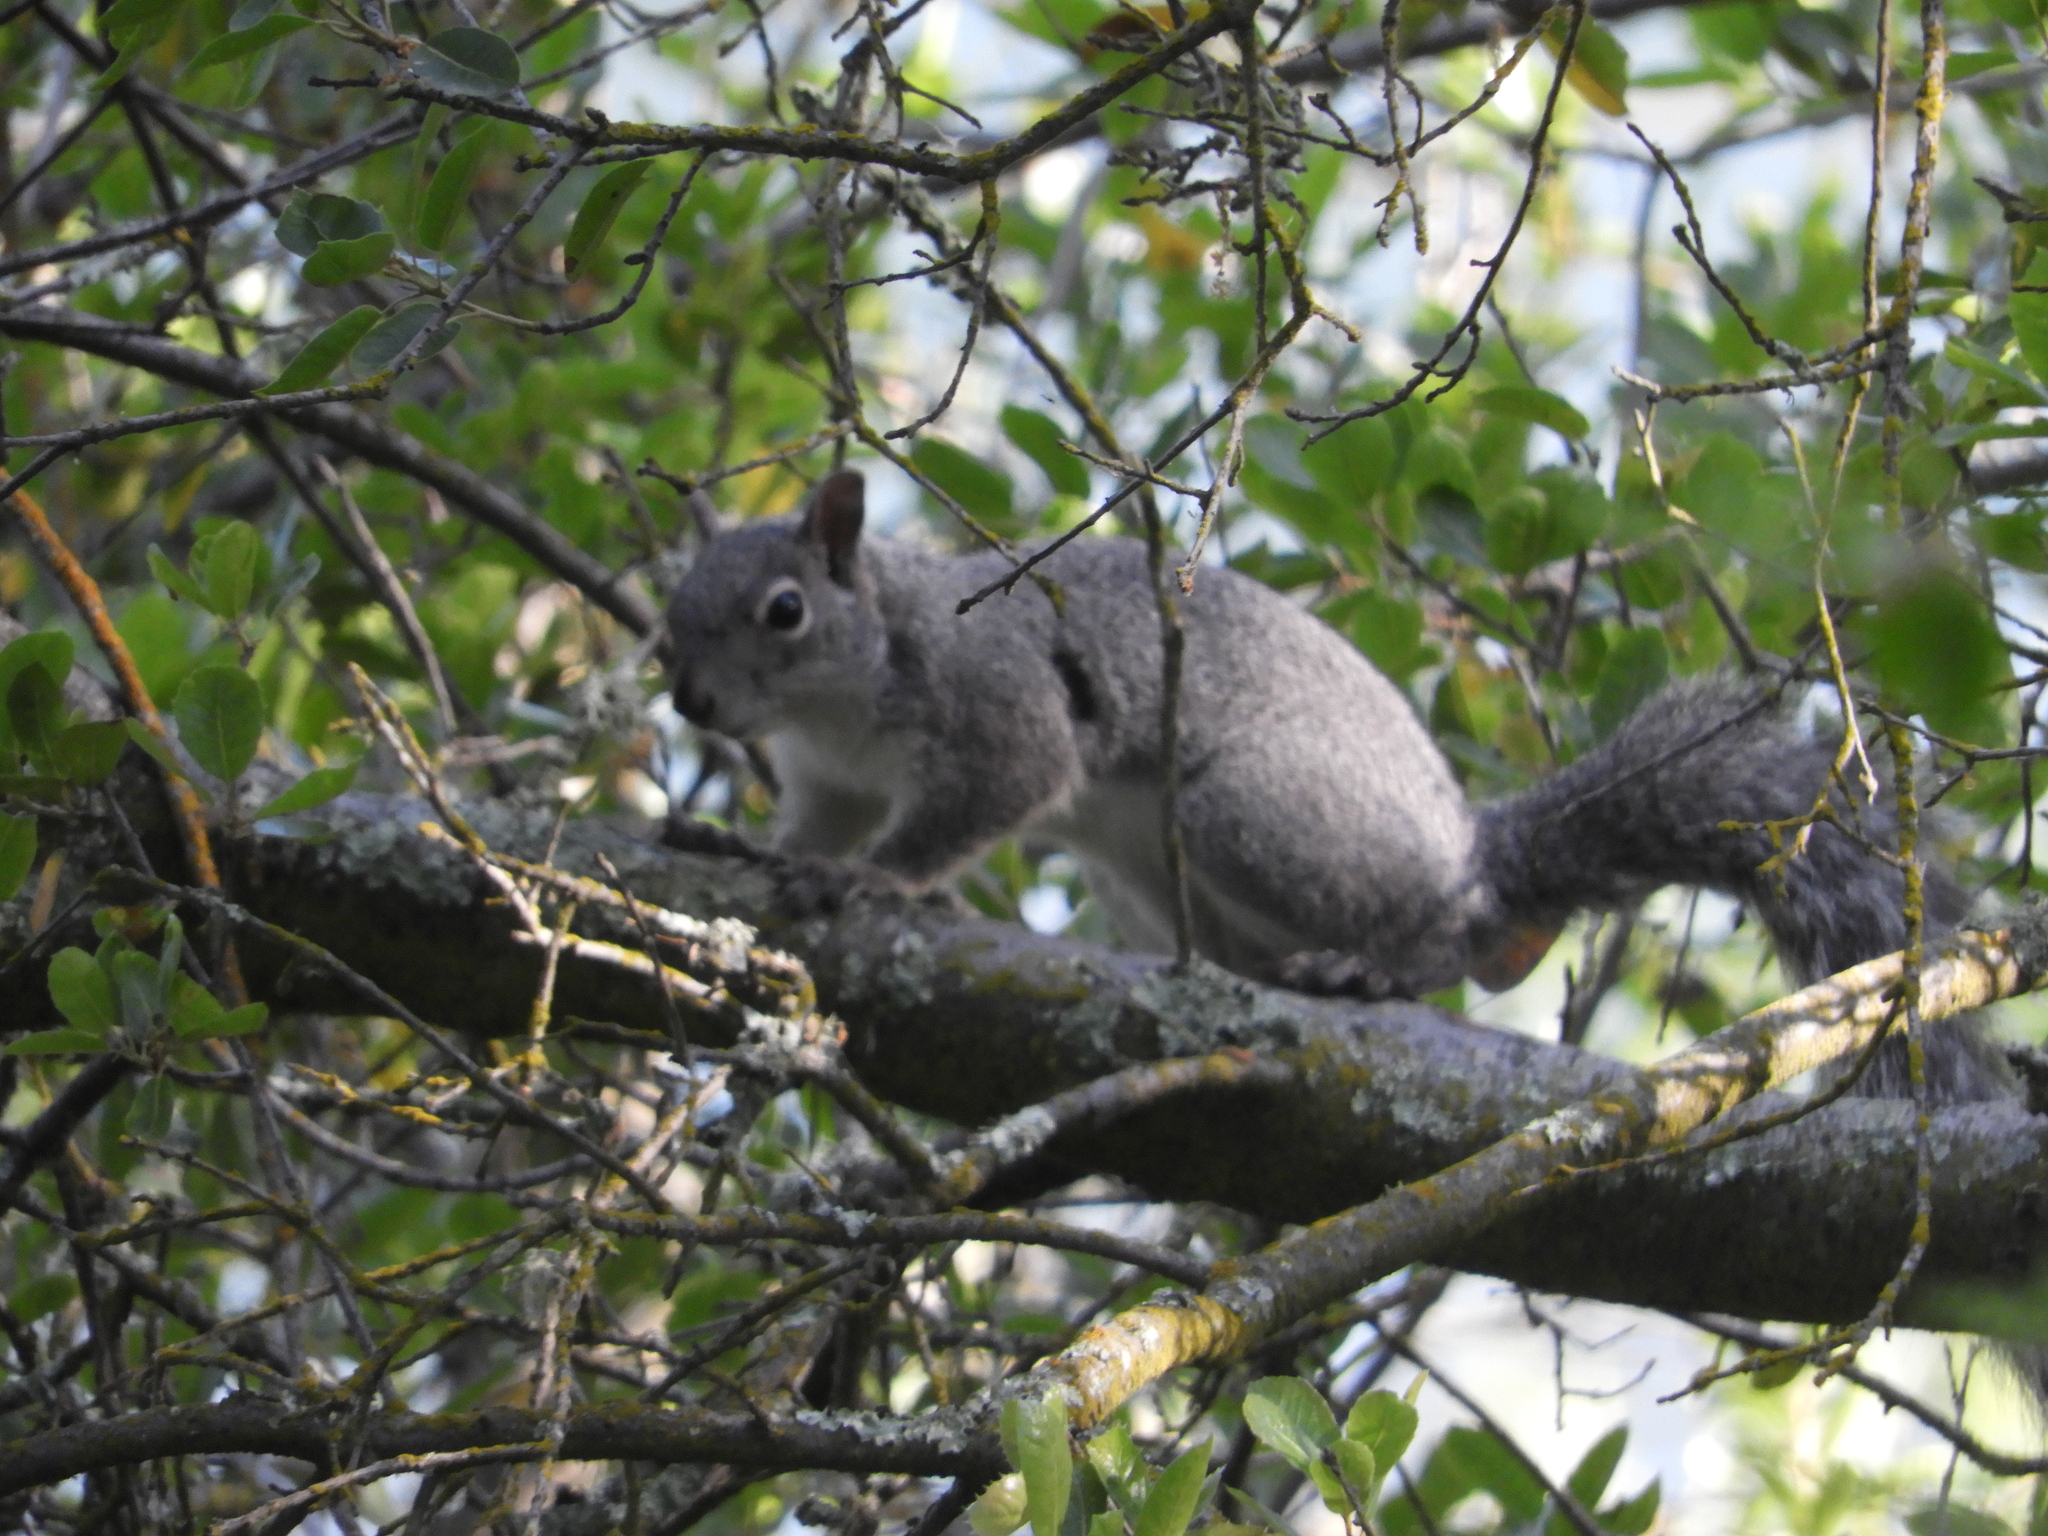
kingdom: Animalia
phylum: Chordata
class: Mammalia
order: Rodentia
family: Sciuridae
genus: Sciurus
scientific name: Sciurus griseus
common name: Western gray squirrel
